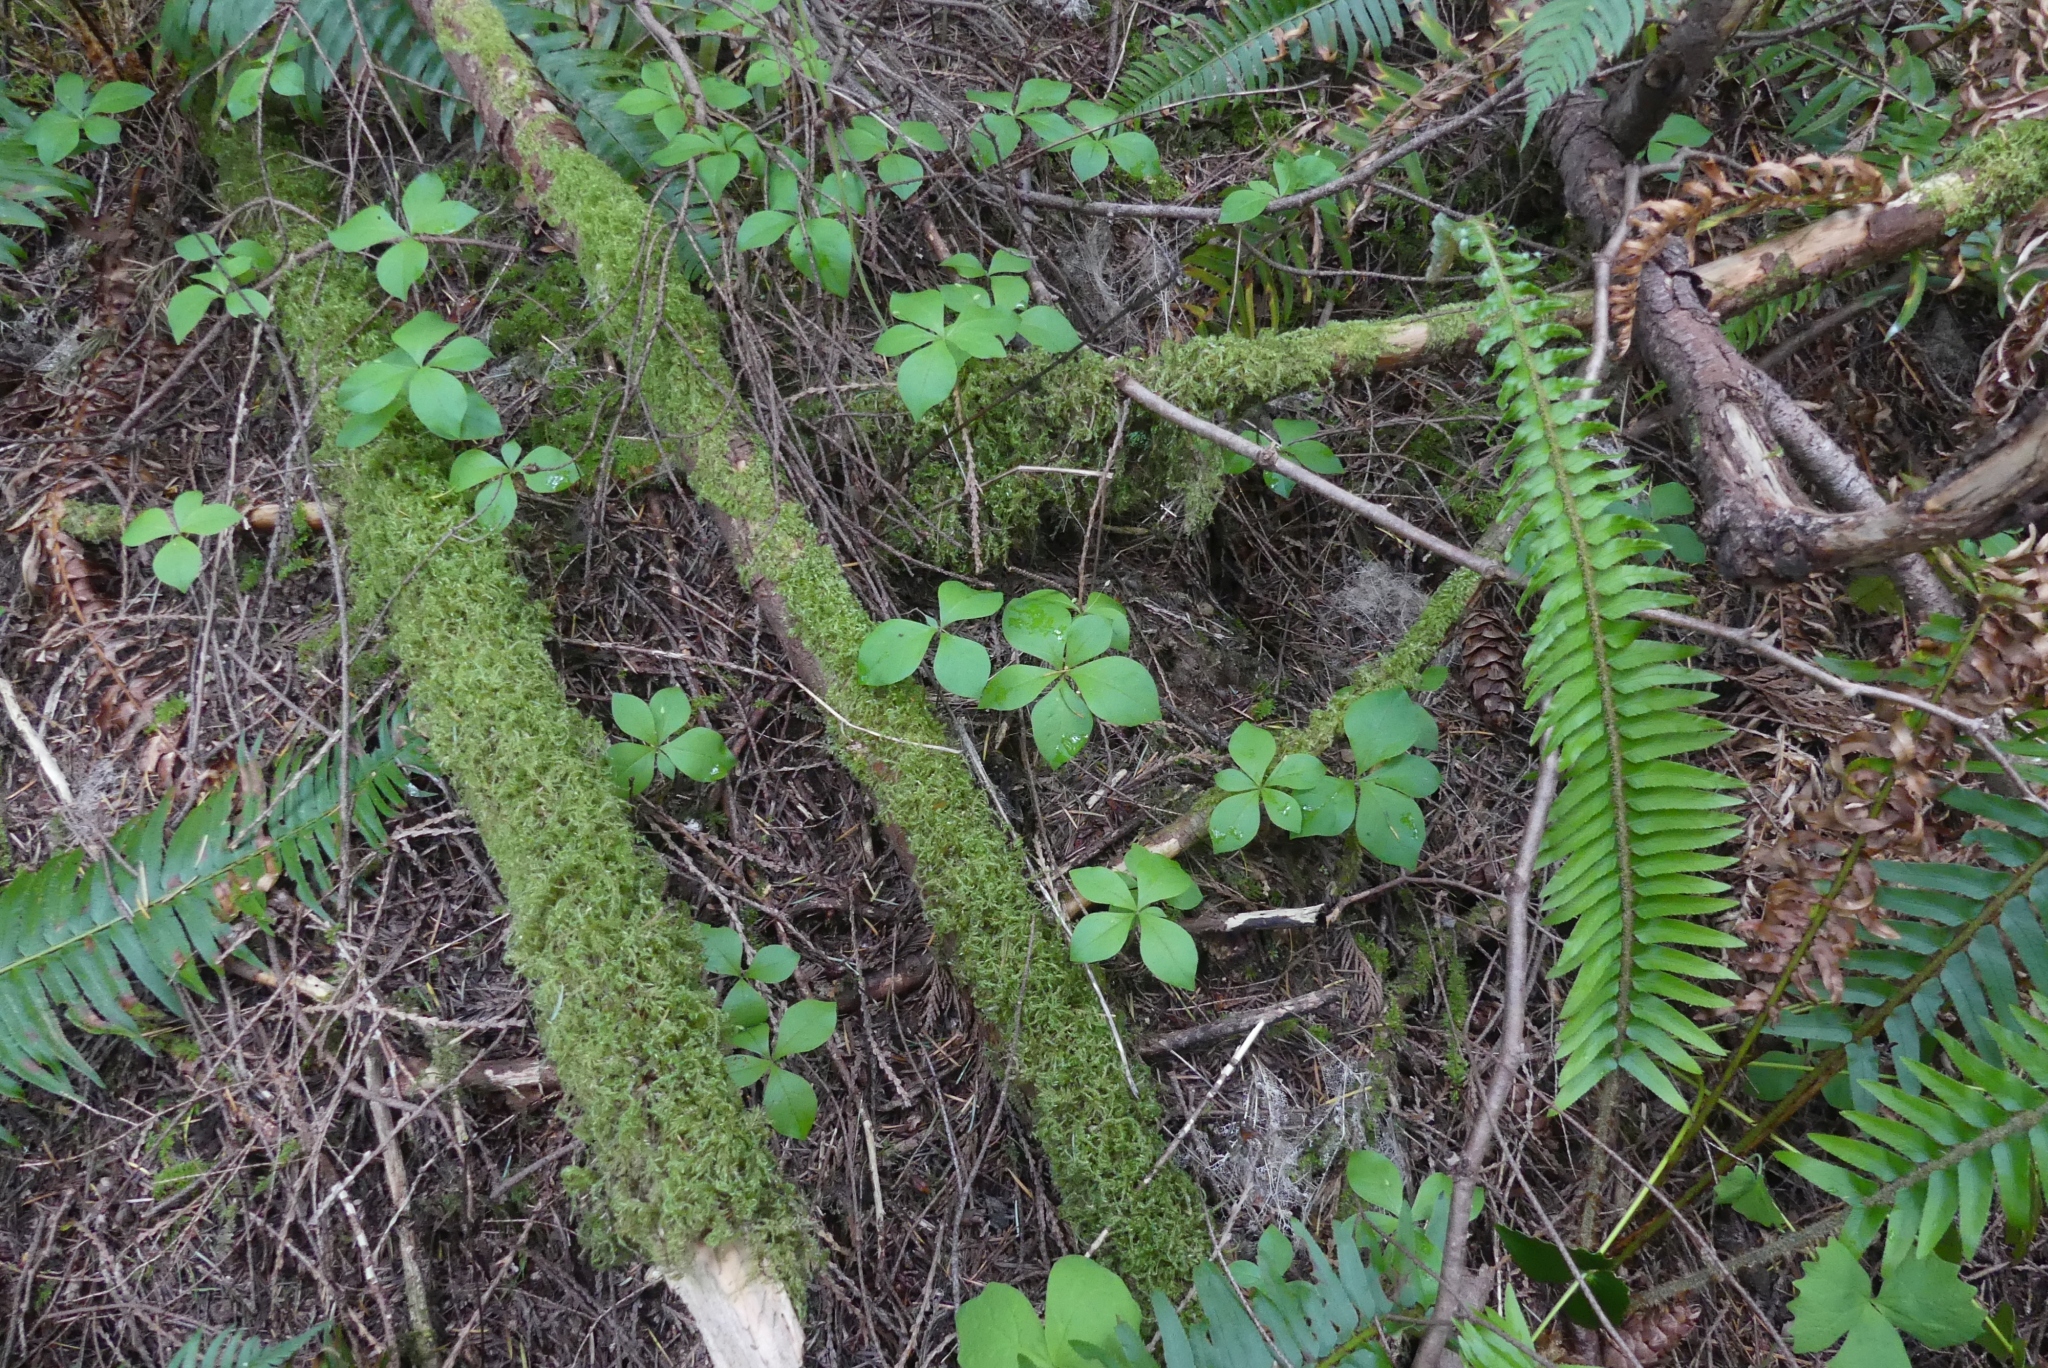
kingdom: Plantae
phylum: Tracheophyta
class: Magnoliopsida
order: Ericales
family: Primulaceae
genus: Lysimachia
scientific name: Lysimachia latifolia
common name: Pacific starflower
